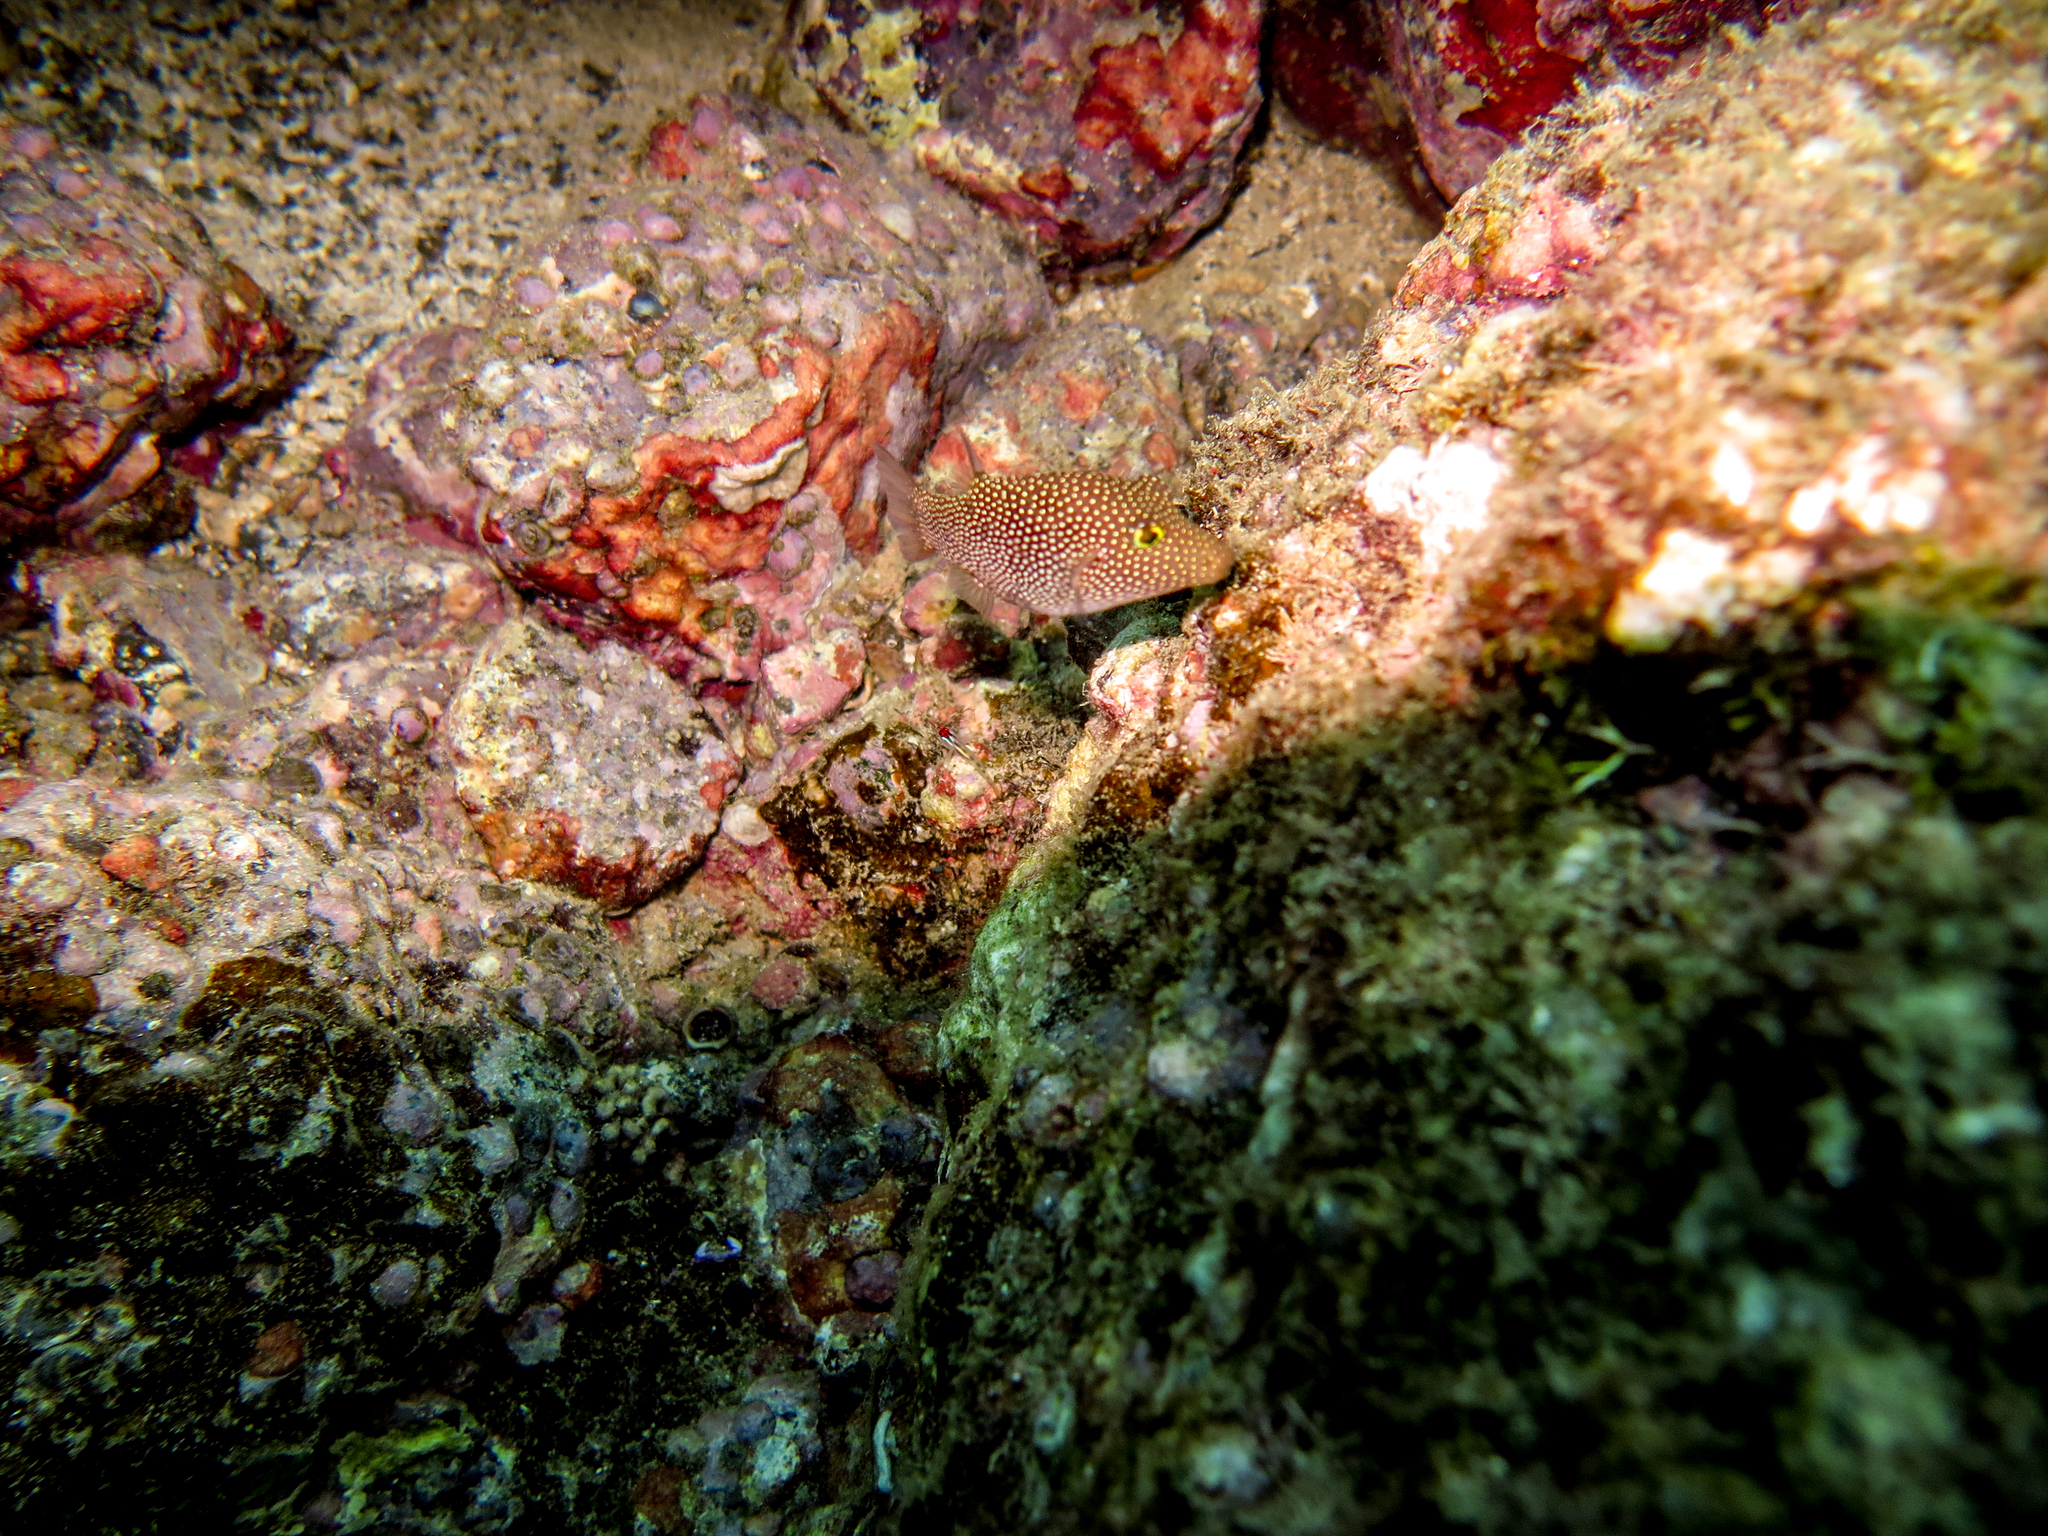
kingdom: Animalia
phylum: Chordata
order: Tetraodontiformes
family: Tetraodontidae
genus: Canthigaster
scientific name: Canthigaster punctatissima
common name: Spotted sharpnose puffer
